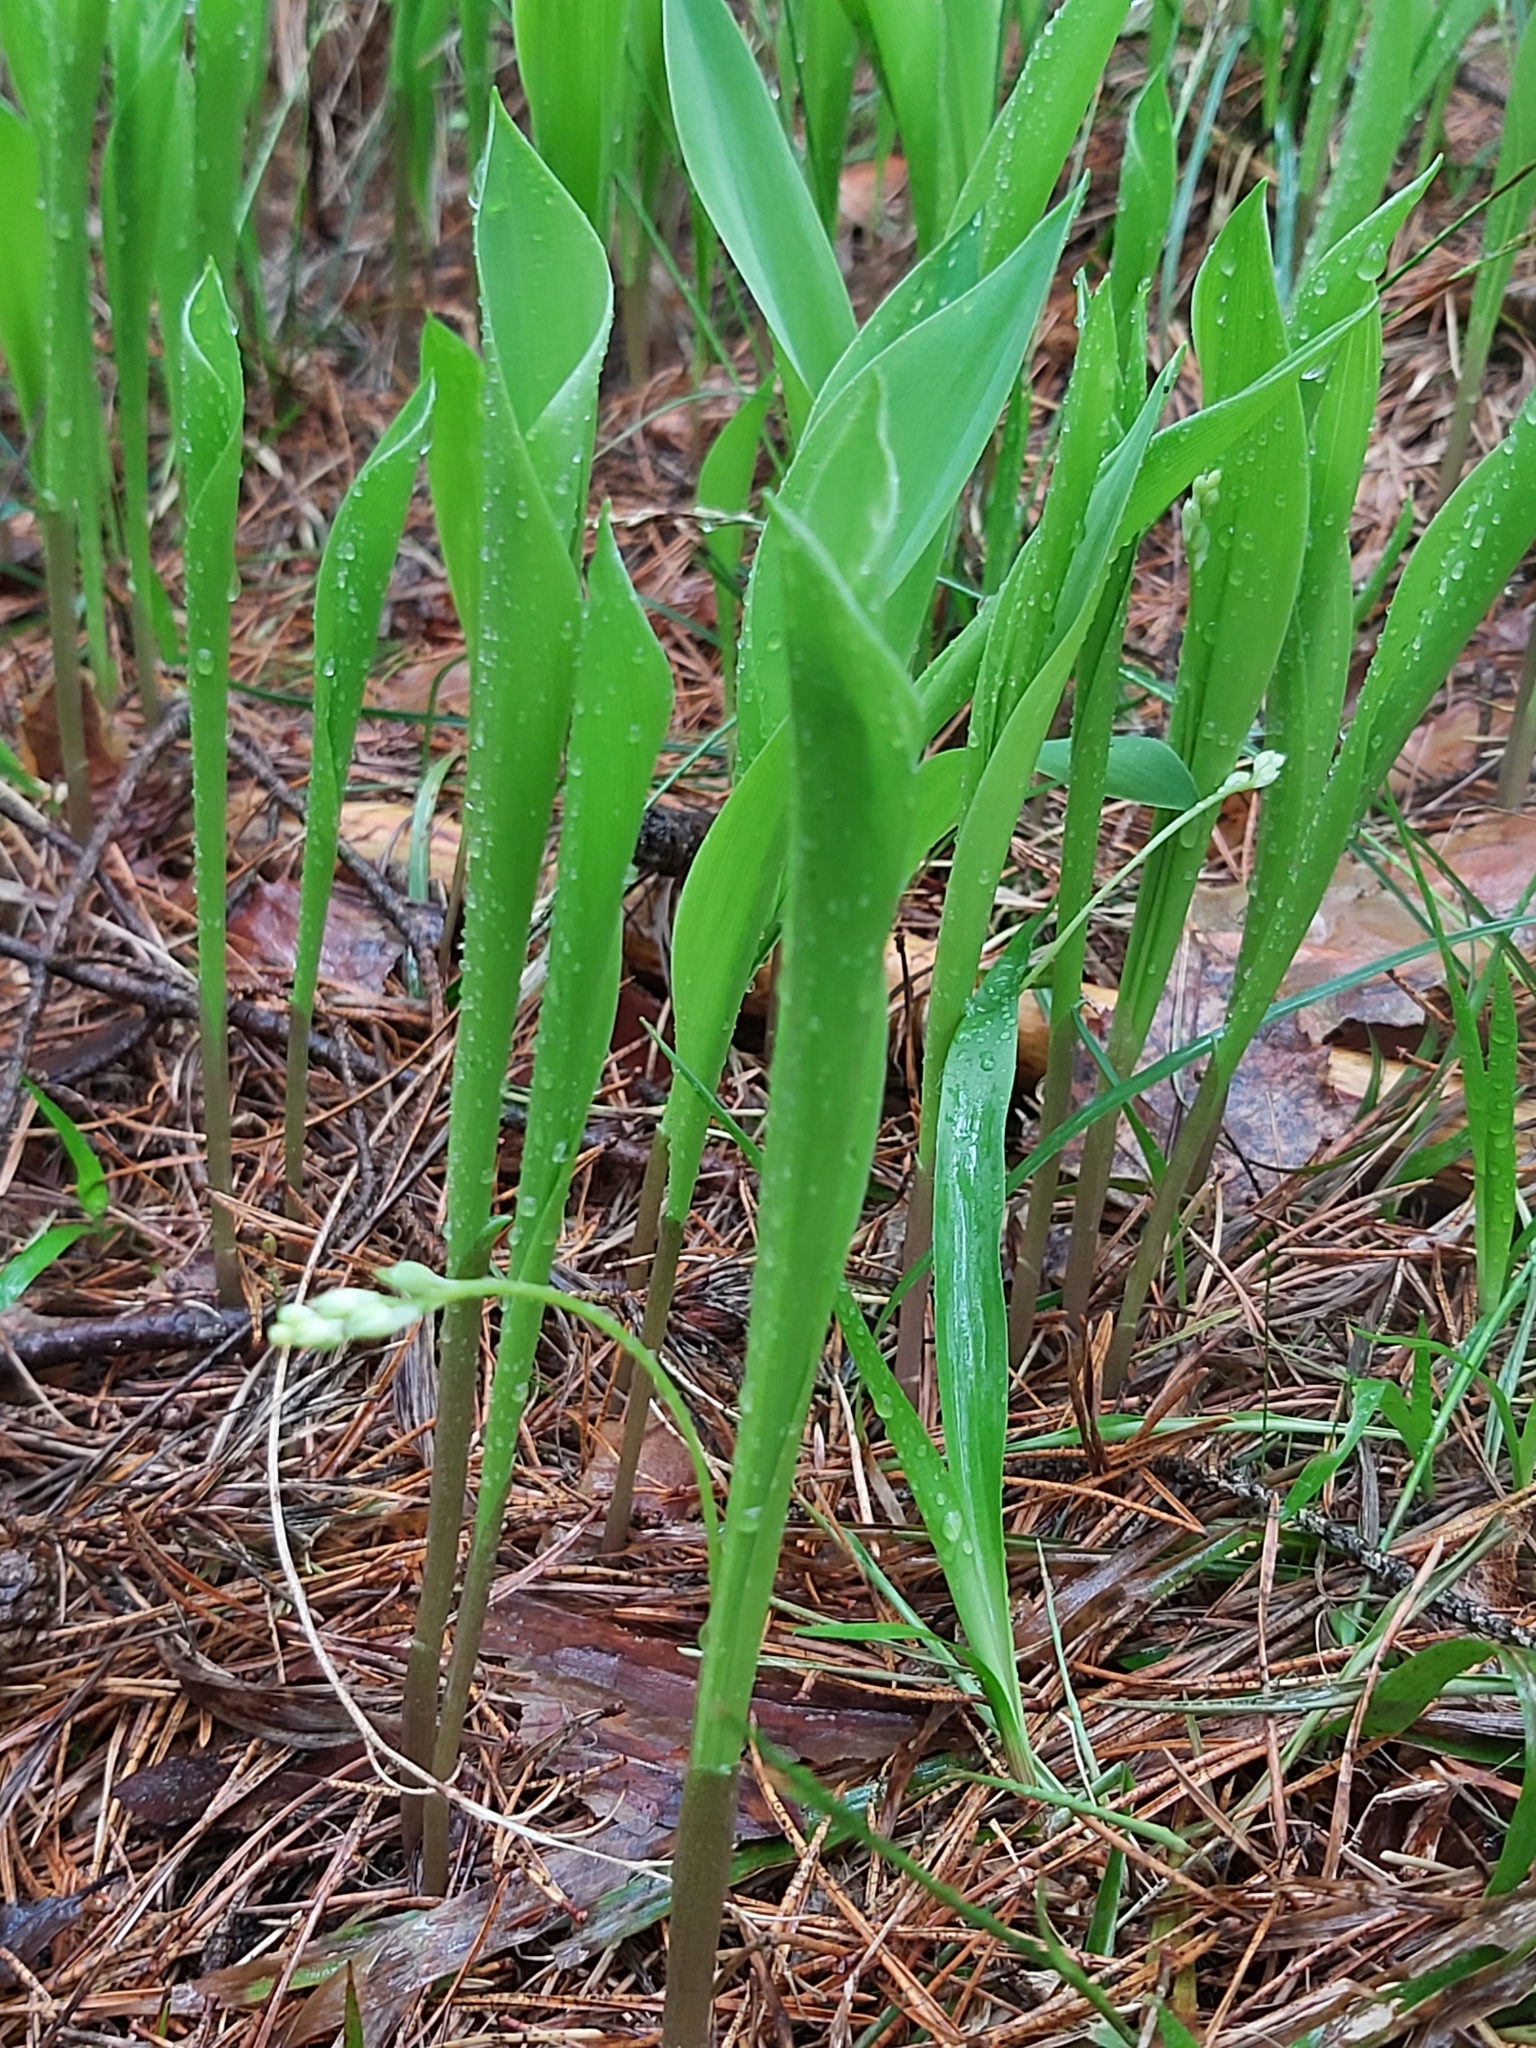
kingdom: Plantae
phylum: Tracheophyta
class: Liliopsida
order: Asparagales
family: Asparagaceae
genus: Convallaria
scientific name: Convallaria majalis
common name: Lily-of-the-valley
